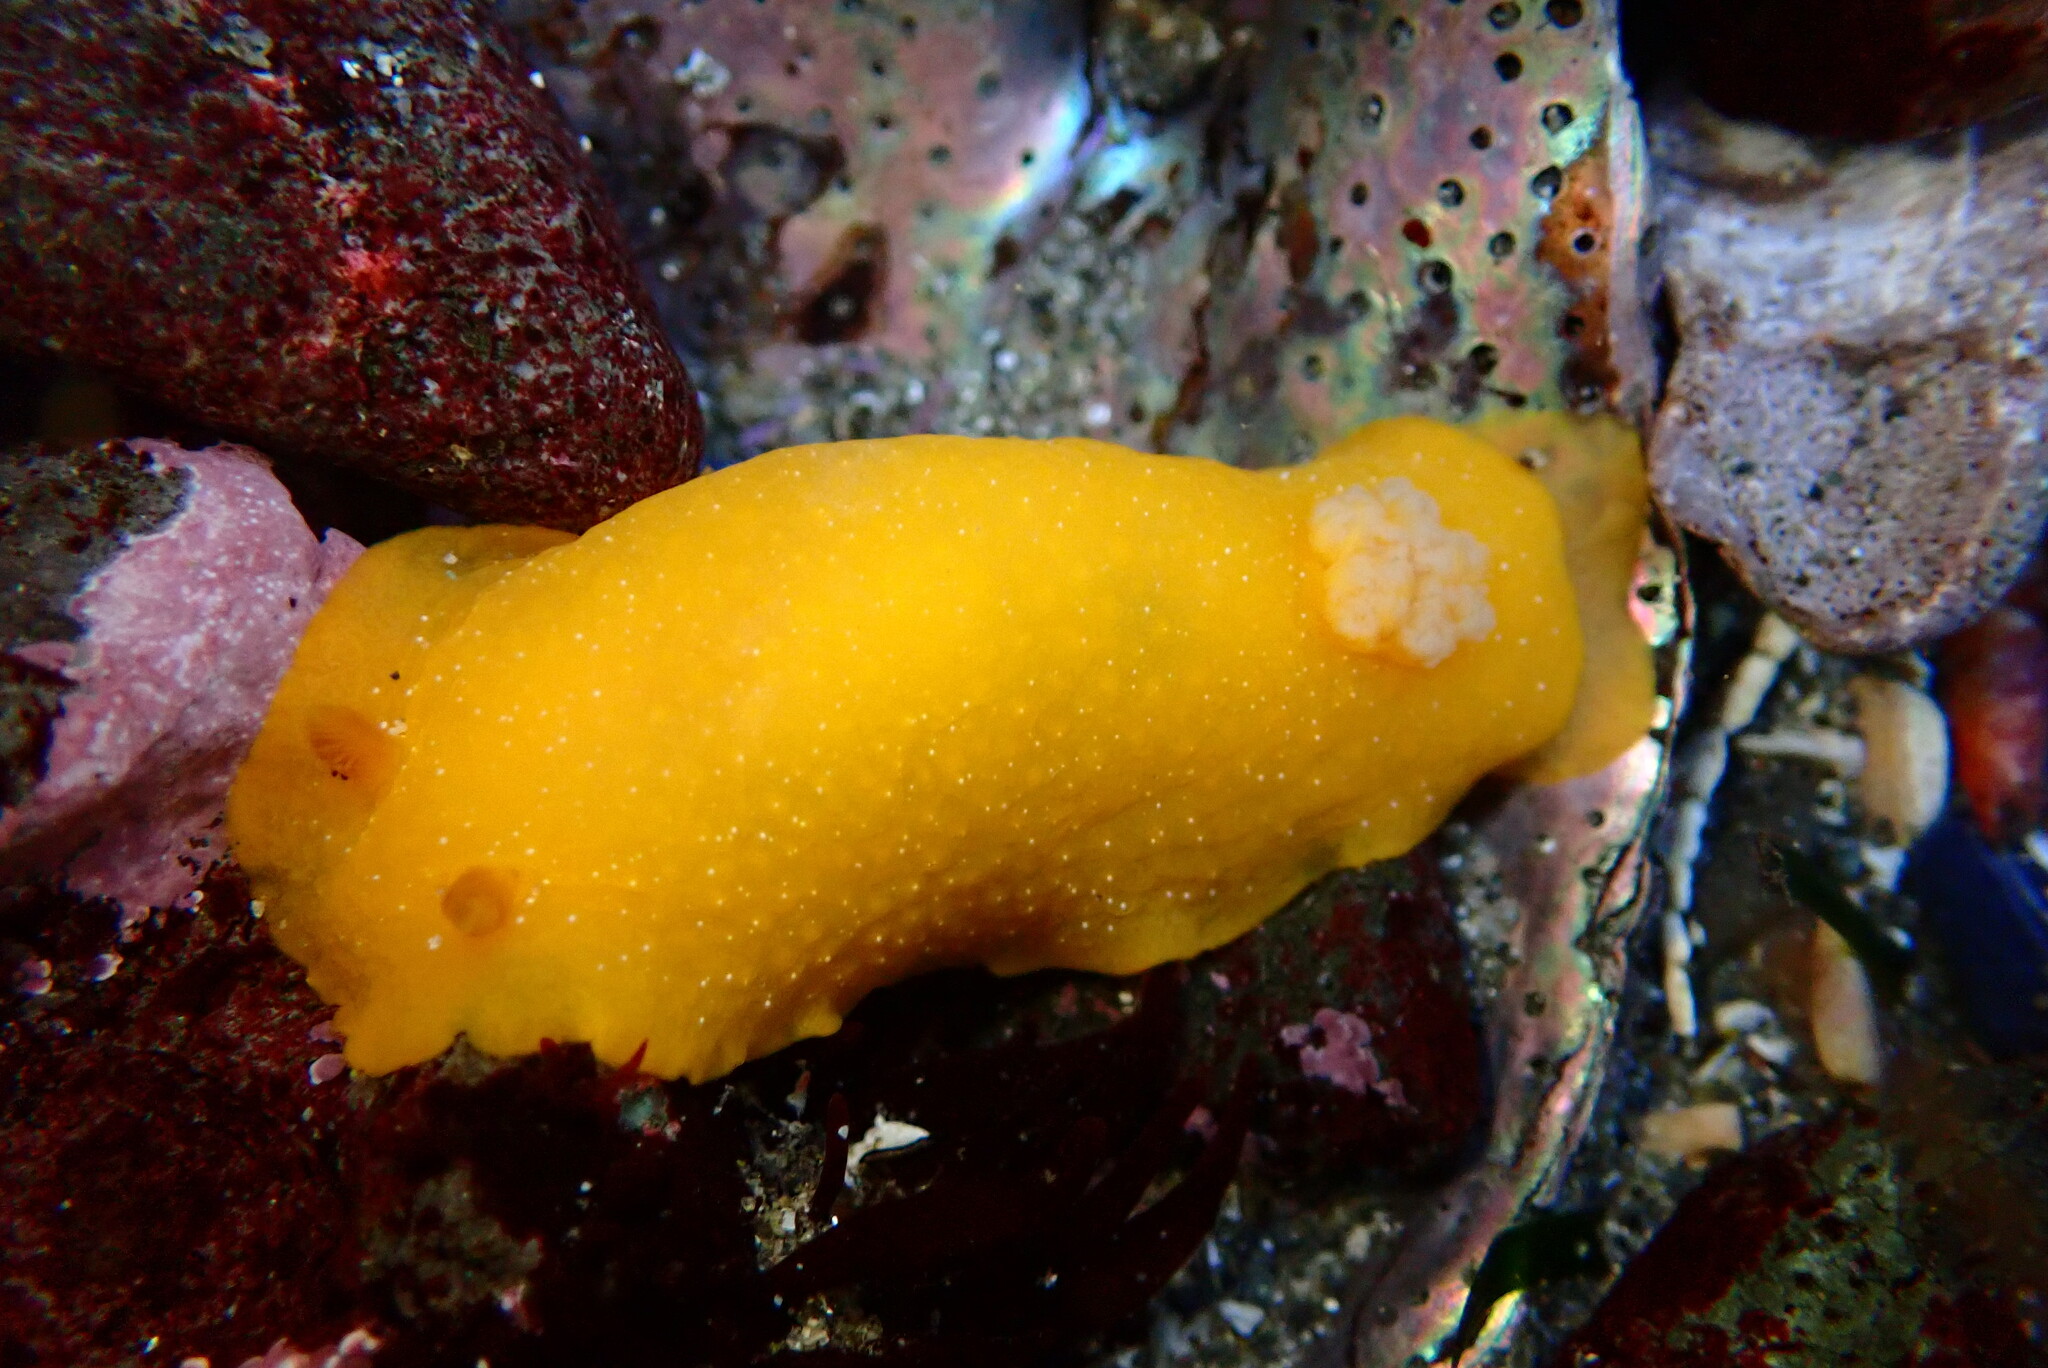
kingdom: Animalia
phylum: Mollusca
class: Gastropoda
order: Nudibranchia
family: Dendrodorididae
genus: Doriopsilla
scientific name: Doriopsilla fulva
